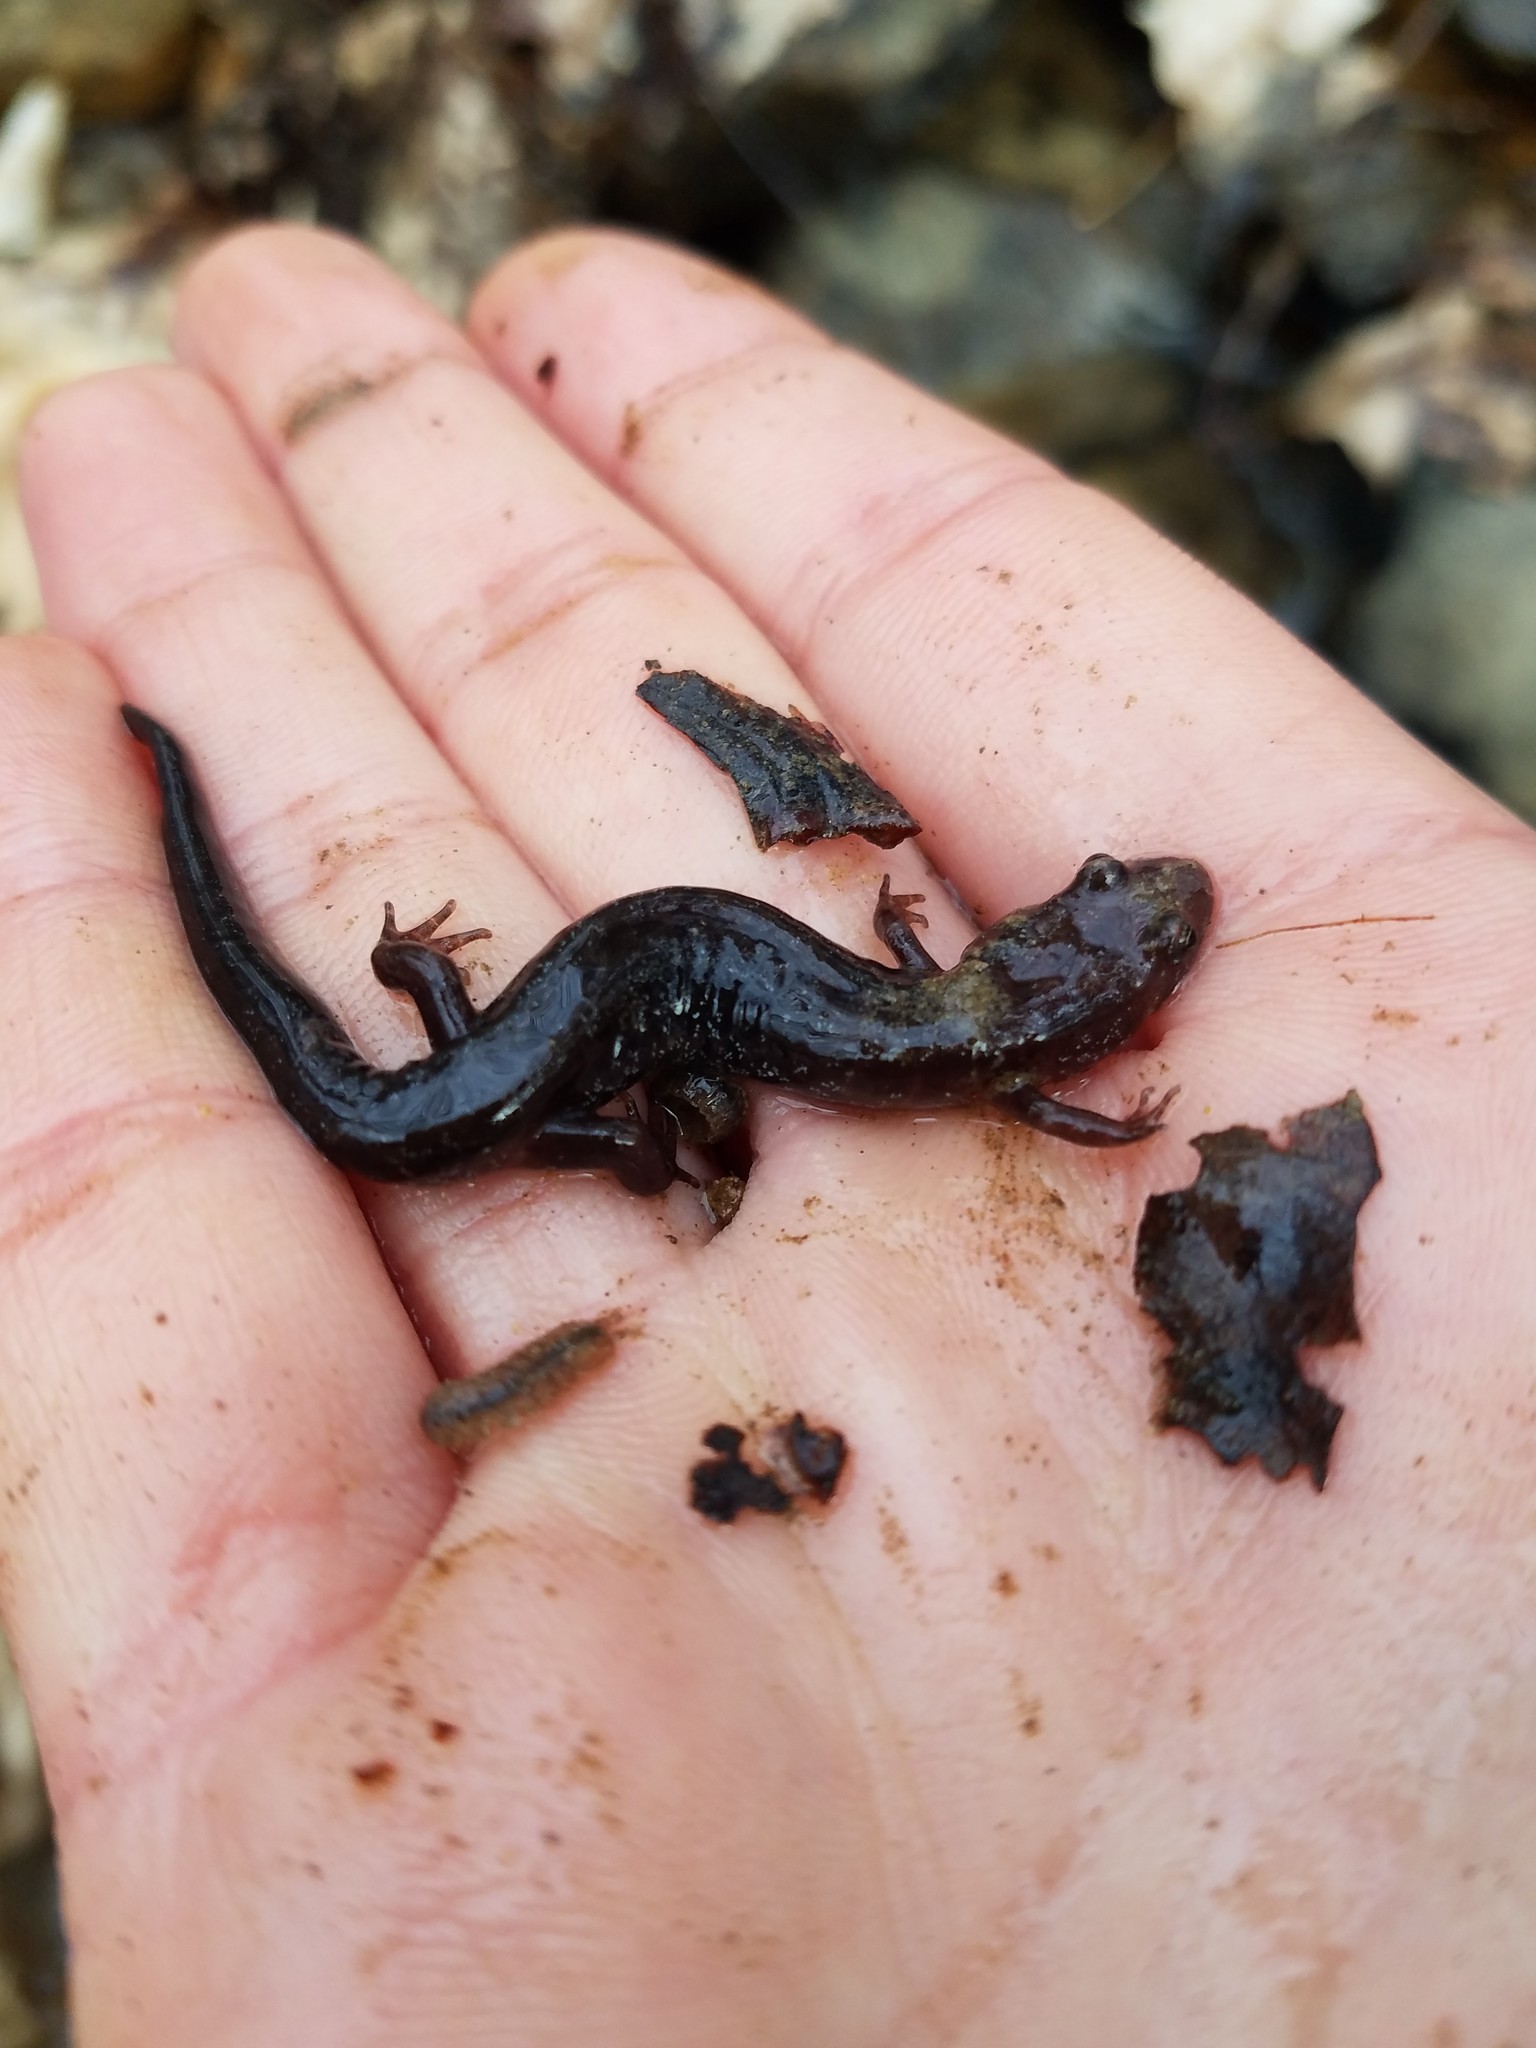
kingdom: Animalia
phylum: Chordata
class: Amphibia
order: Caudata
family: Plethodontidae
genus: Desmognathus
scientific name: Desmognathus ochrophaeus
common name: Allegheny mountain dusky salamander
